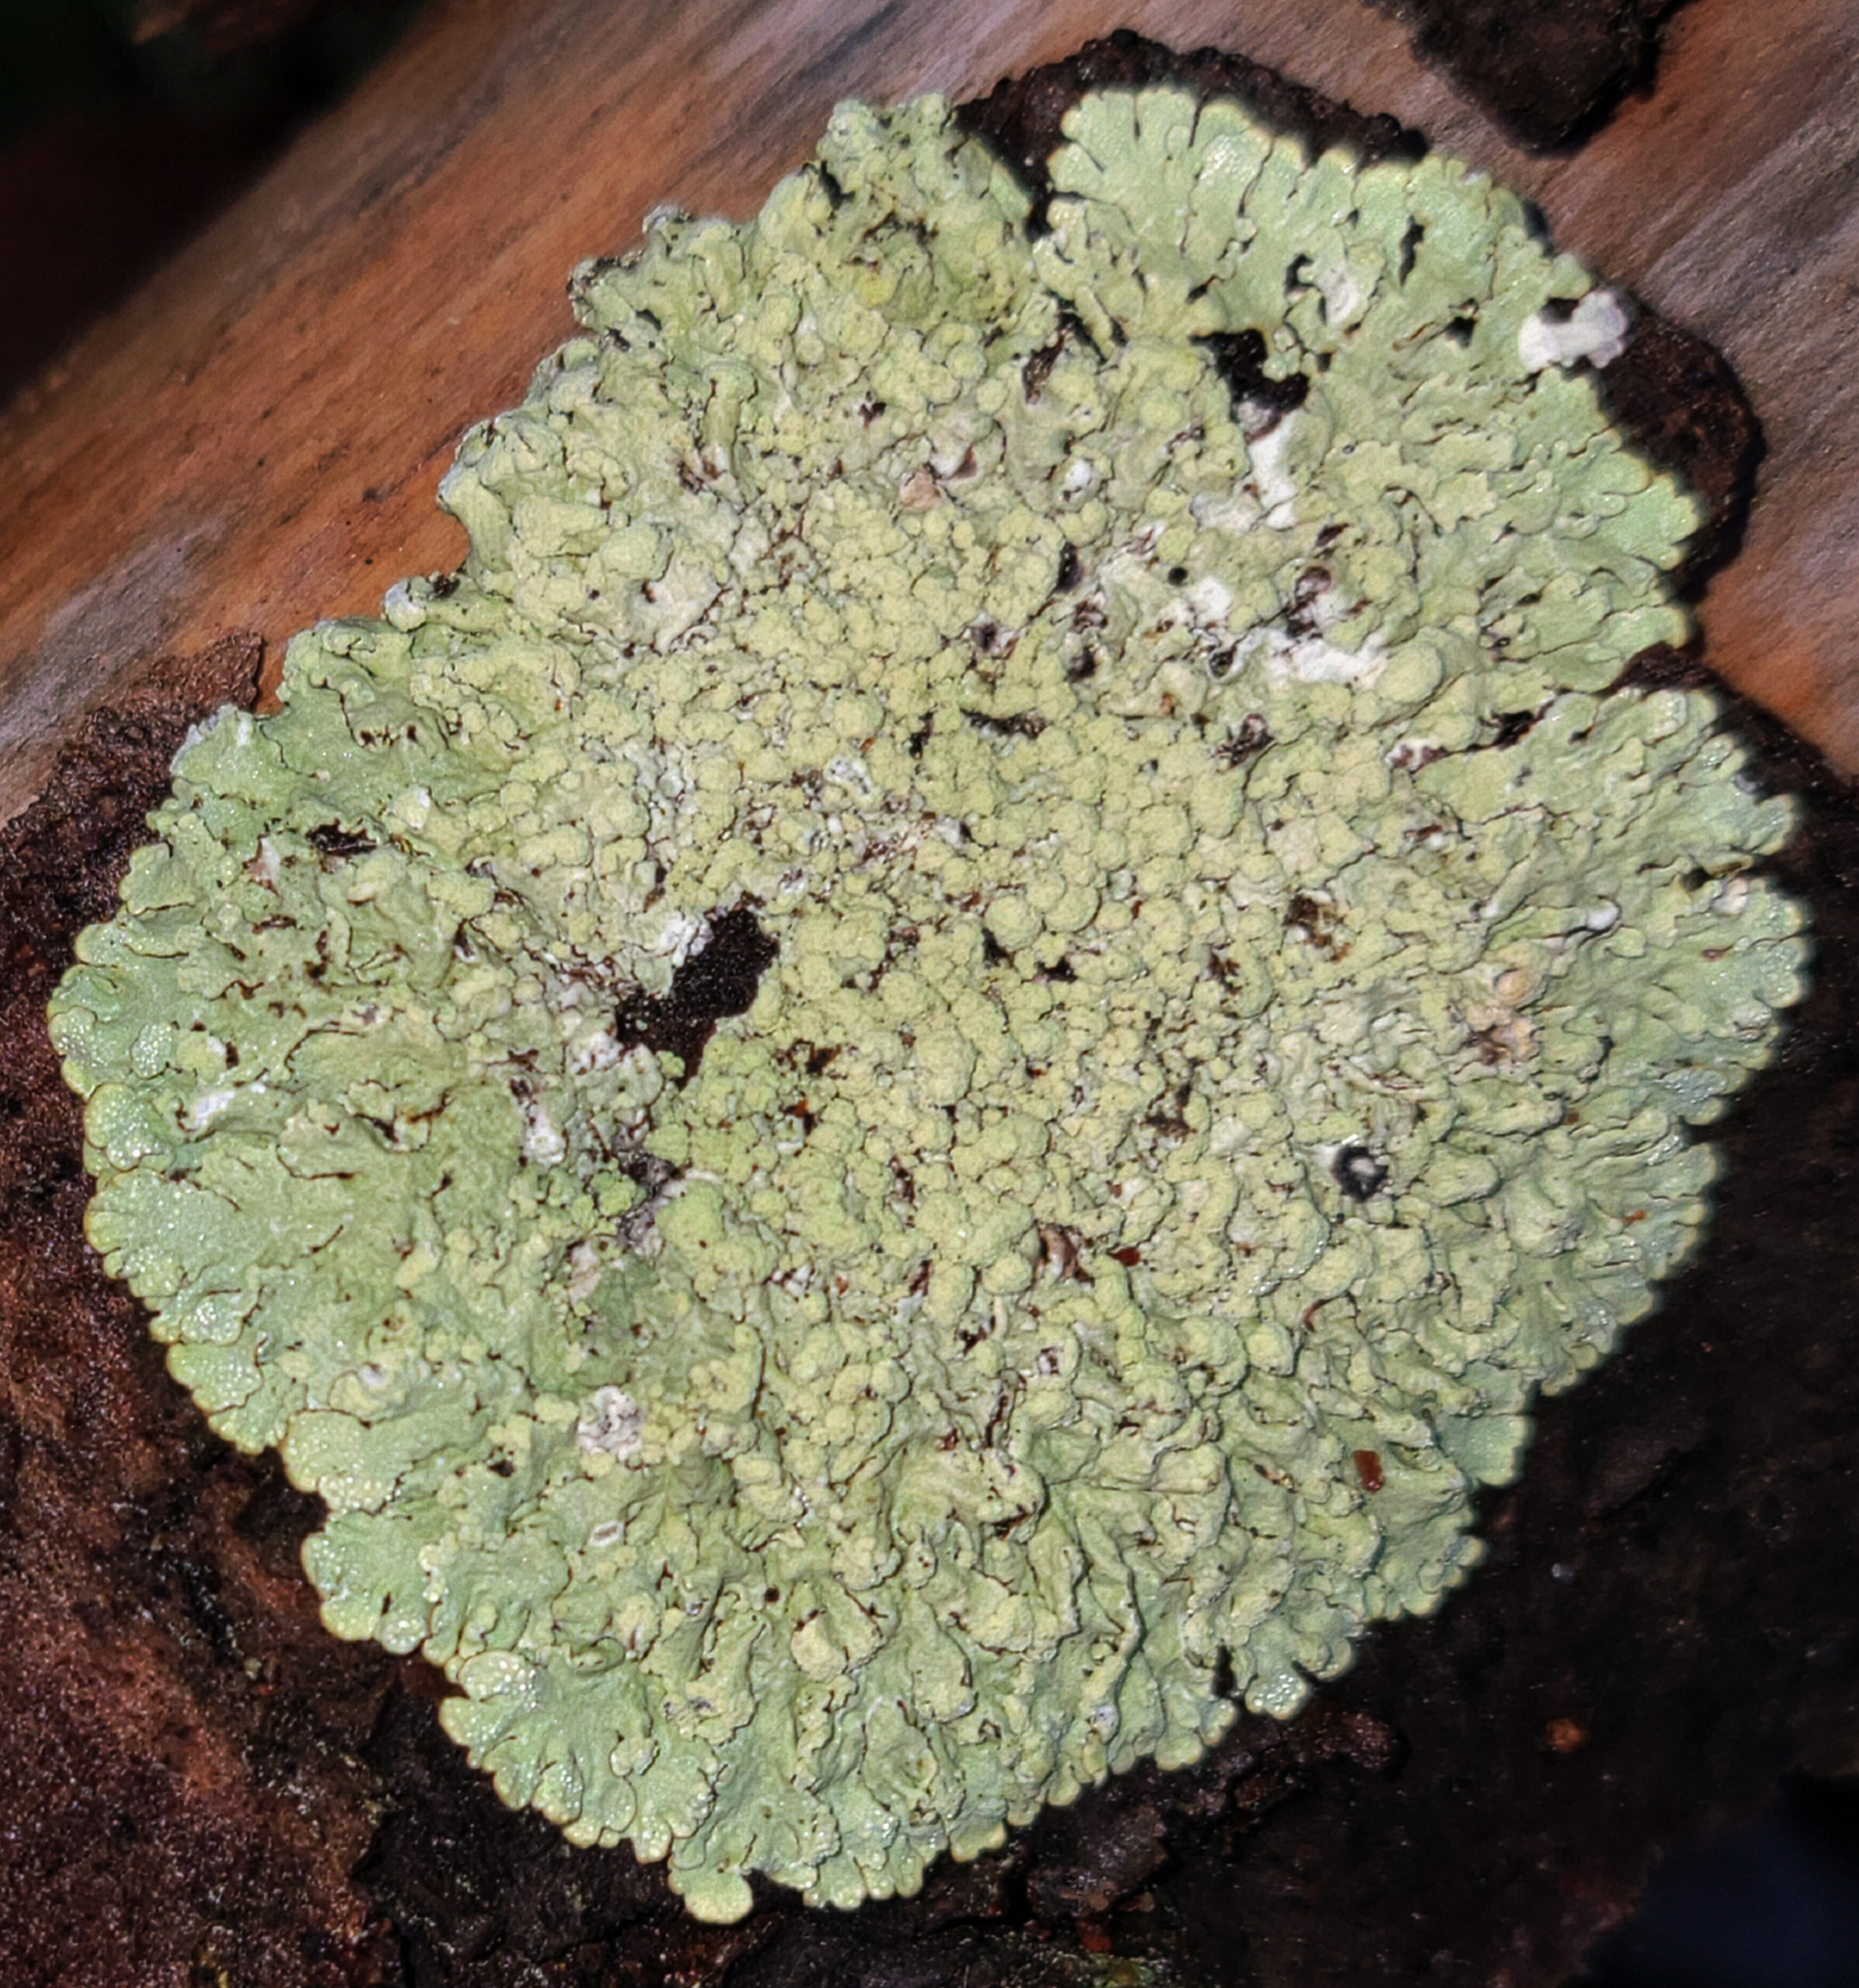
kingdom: Fungi
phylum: Ascomycota
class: Lecanoromycetes
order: Lecanorales
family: Parmeliaceae
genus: Parmeliopsis
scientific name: Parmeliopsis ambigua
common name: Green starburst lichen
